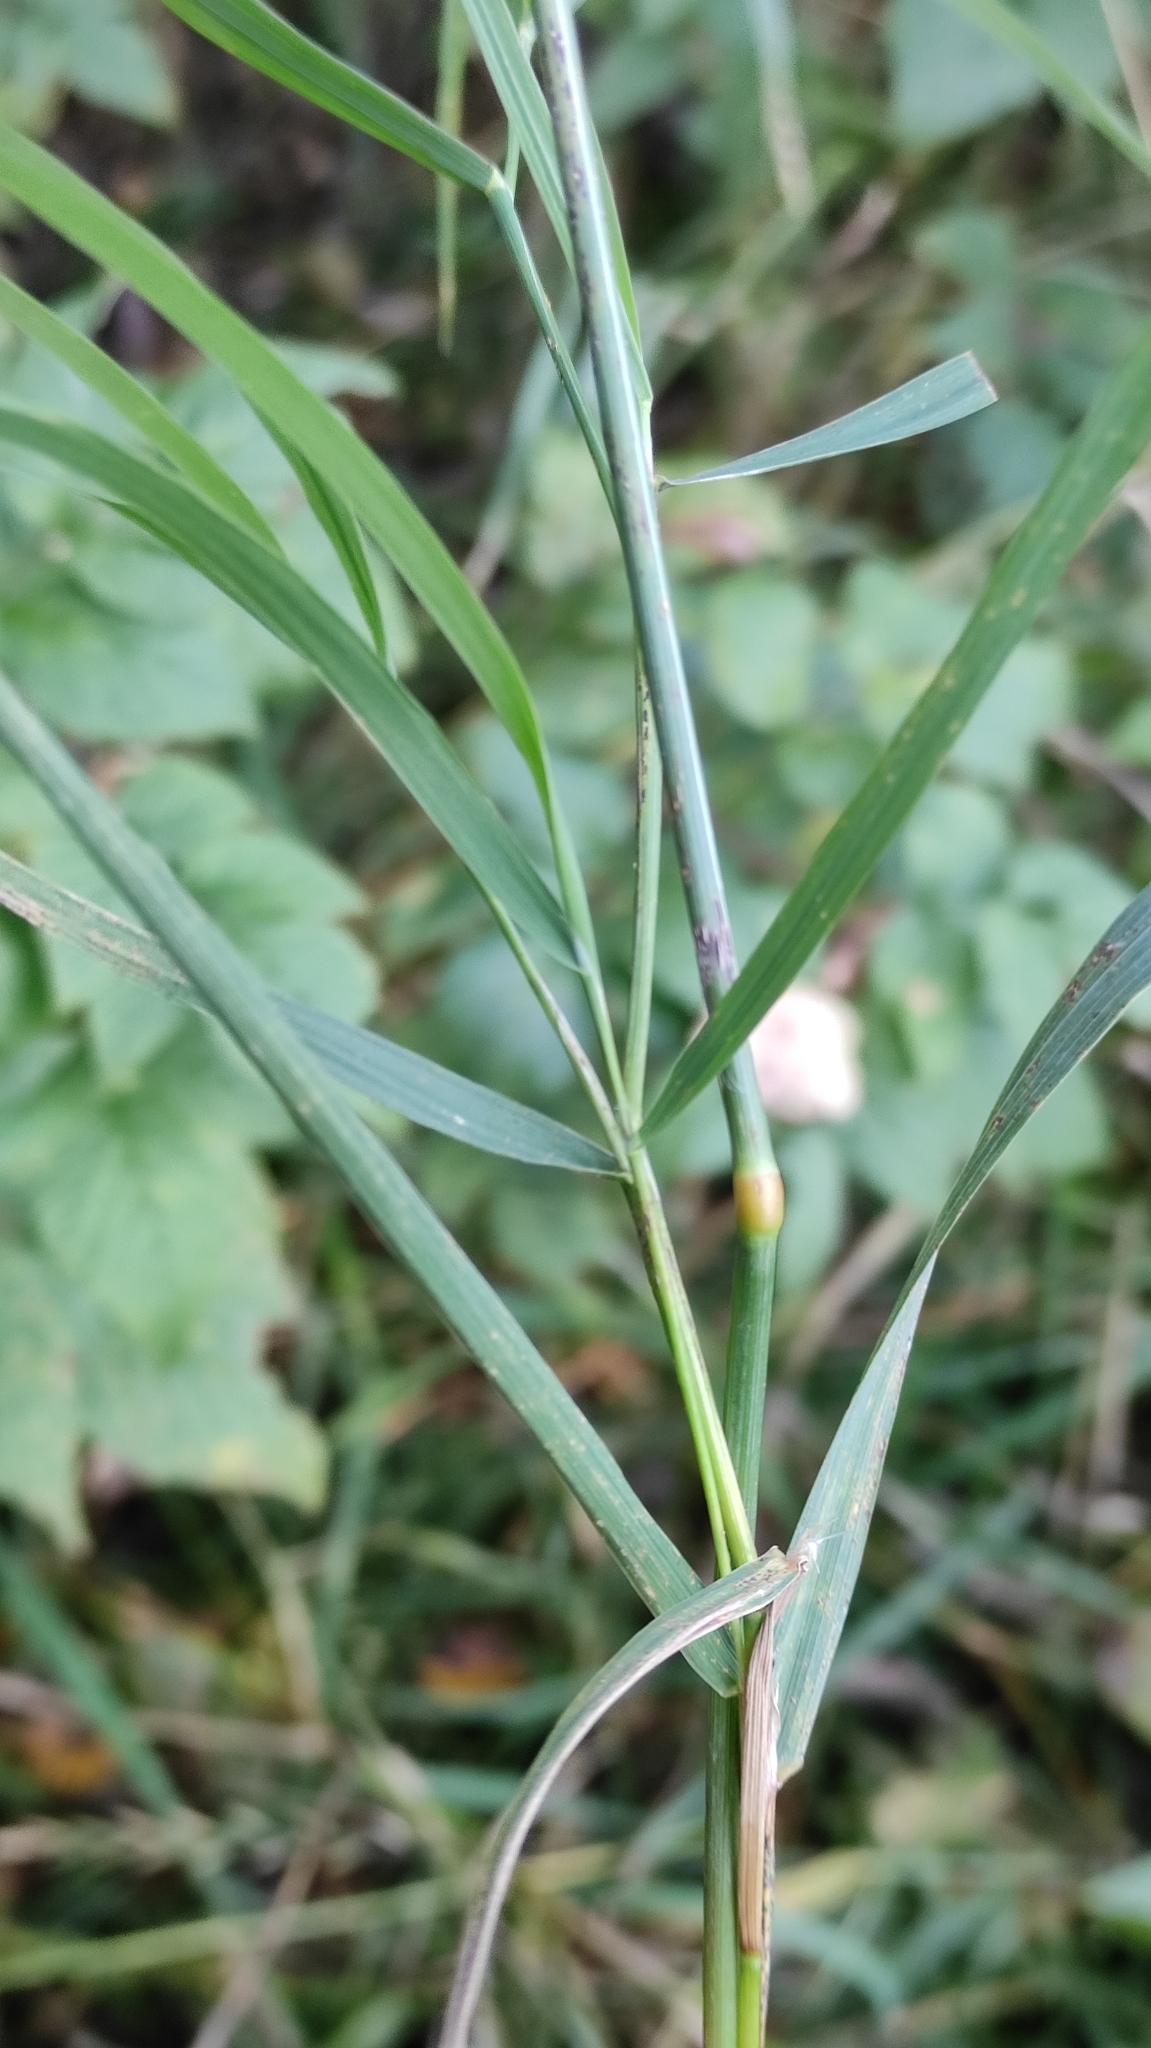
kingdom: Plantae
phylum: Tracheophyta
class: Liliopsida
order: Poales
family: Poaceae
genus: Calamagrostis
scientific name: Calamagrostis purpurea
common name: Scandinavian small-reed
